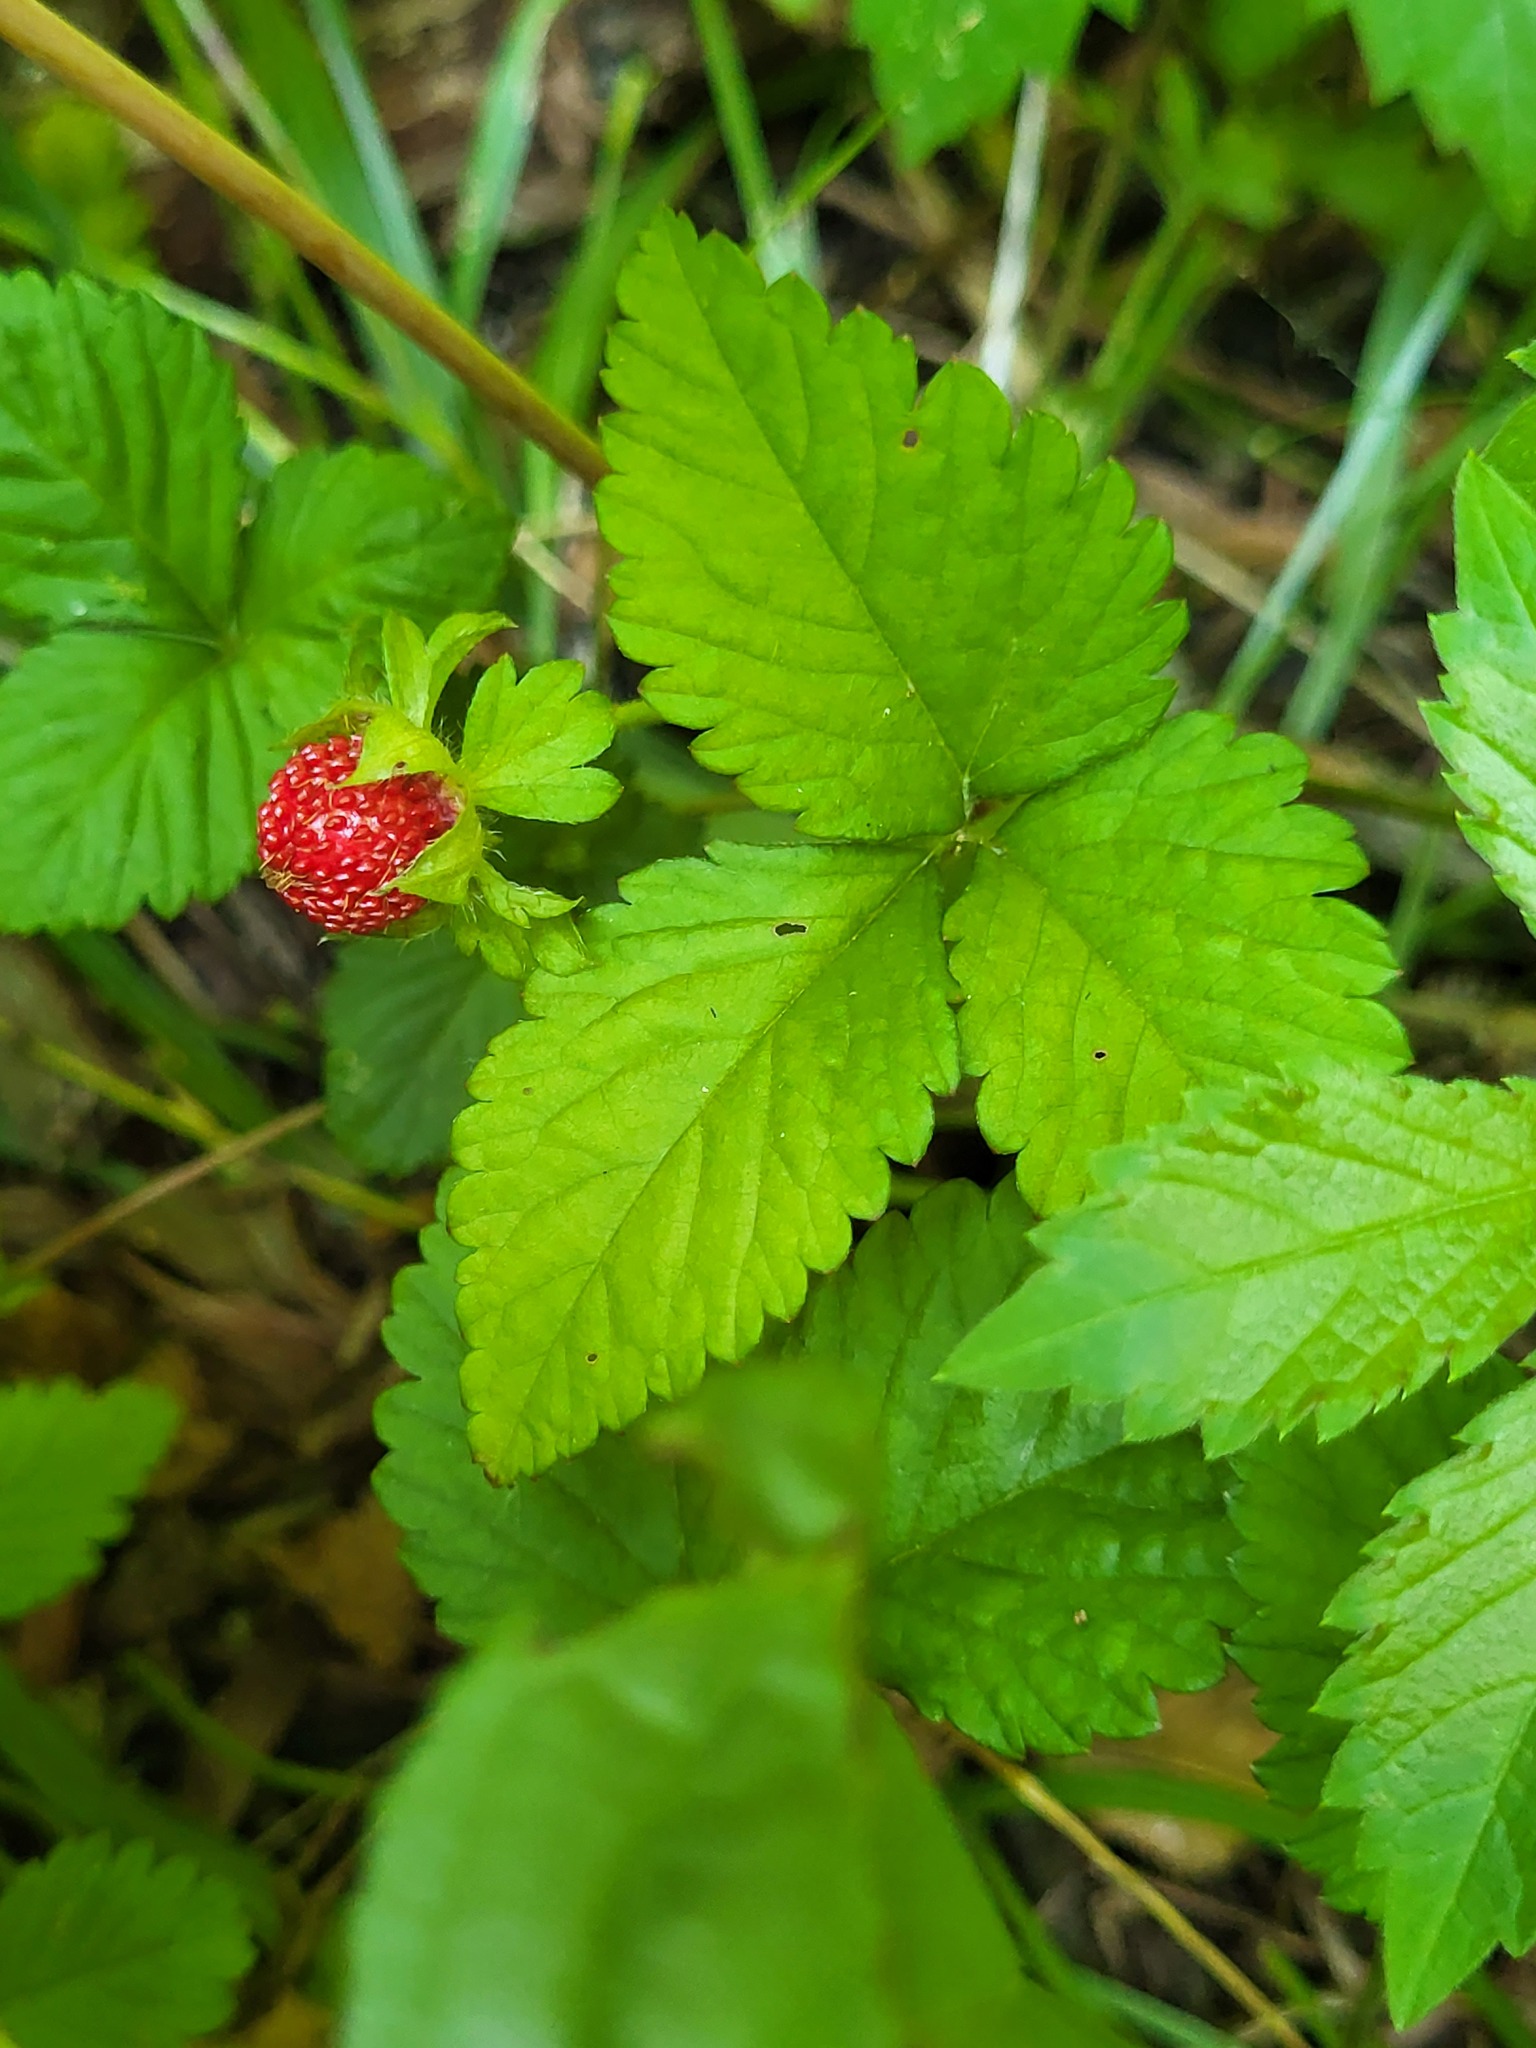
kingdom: Plantae
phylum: Tracheophyta
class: Magnoliopsida
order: Rosales
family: Rosaceae
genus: Potentilla
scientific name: Potentilla indica
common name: Yellow-flowered strawberry
